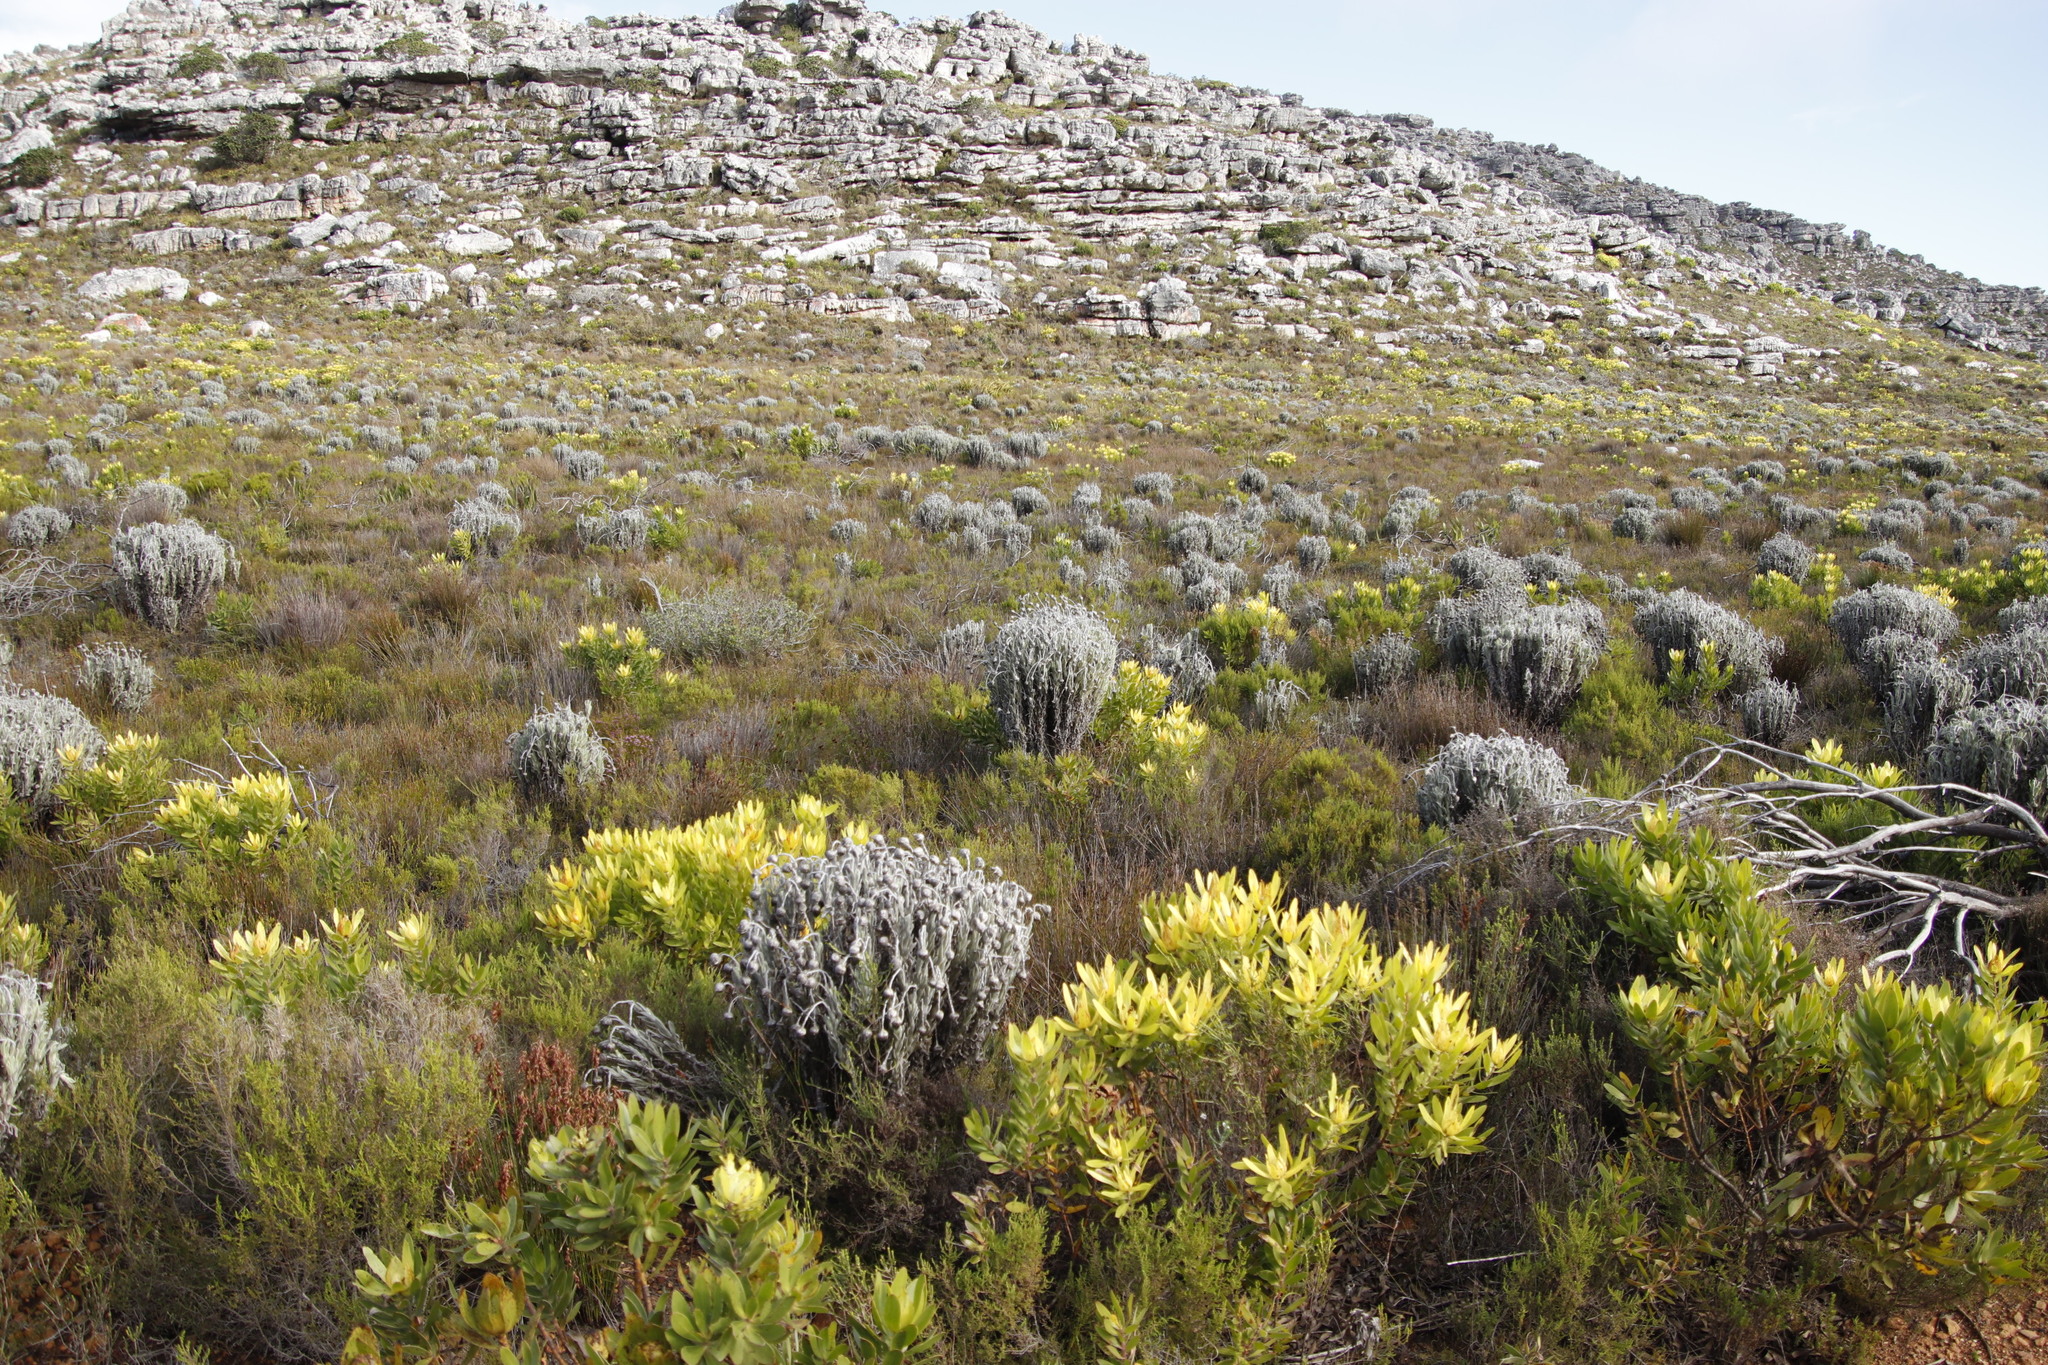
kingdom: Plantae
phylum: Tracheophyta
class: Magnoliopsida
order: Asterales
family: Asteraceae
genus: Syncarpha
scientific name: Syncarpha vestita
